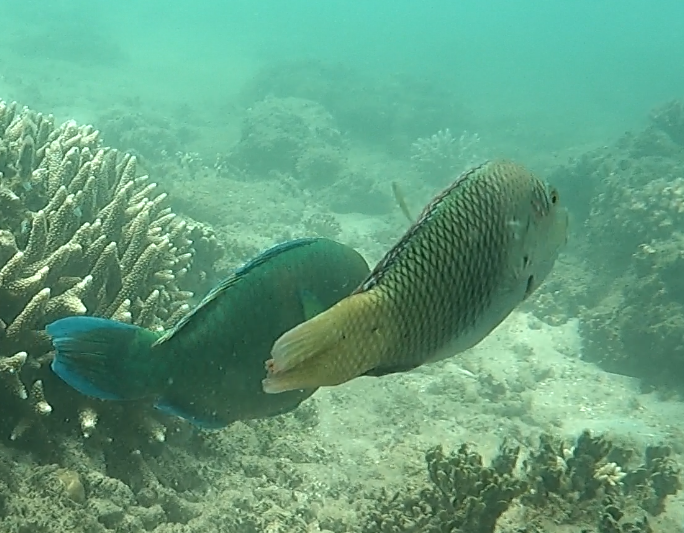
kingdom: Animalia
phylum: Chordata
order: Perciformes
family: Labridae
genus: Hemigymnus
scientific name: Hemigymnus melapterus
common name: Blackeye thicklip
